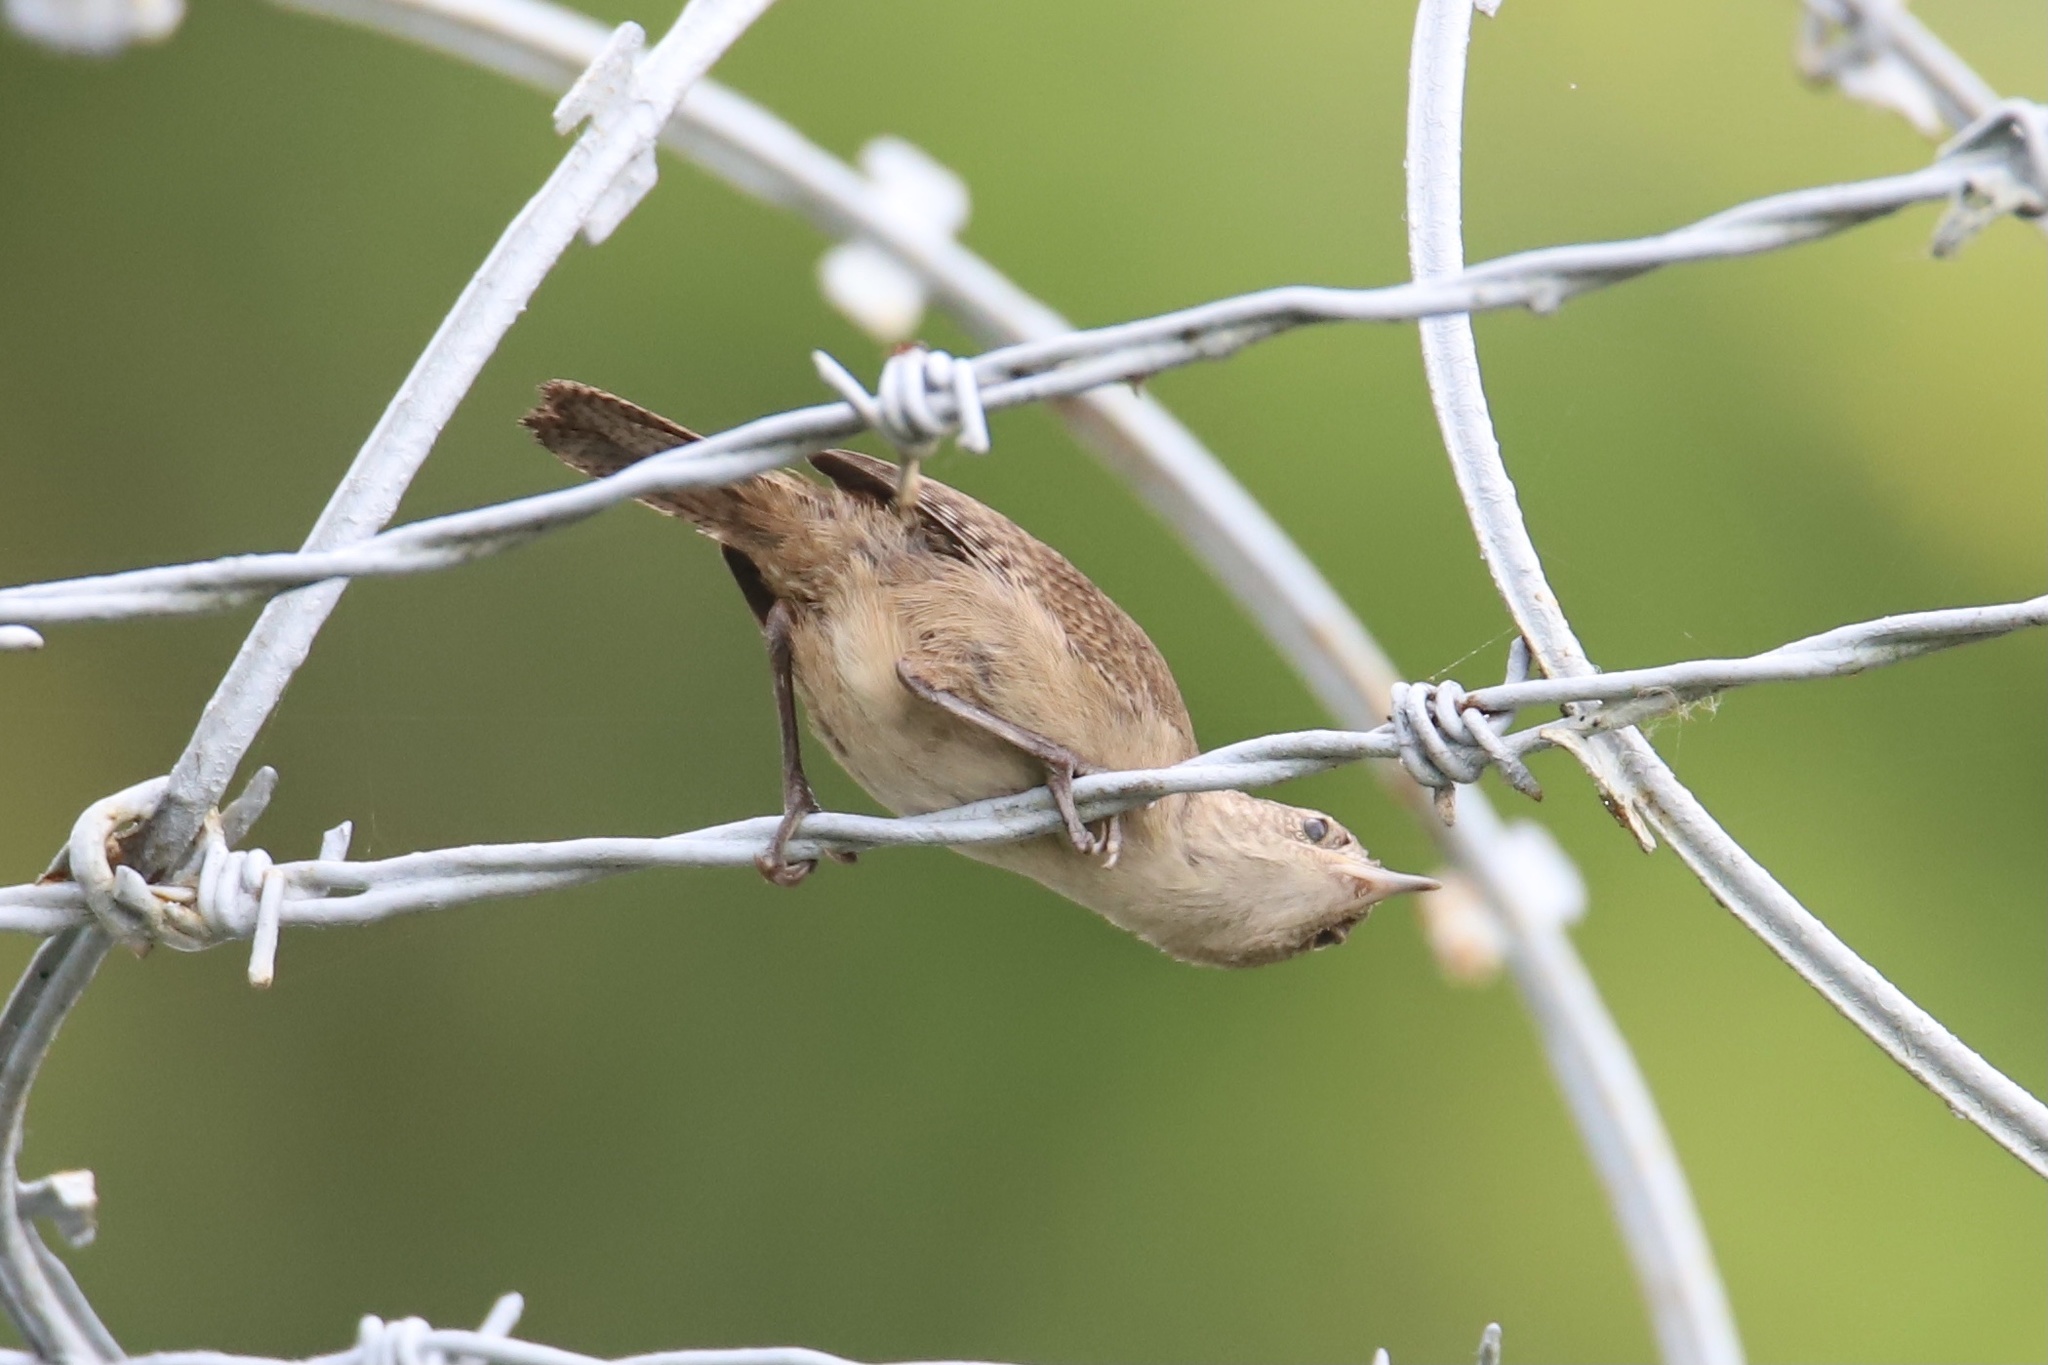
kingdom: Animalia
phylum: Chordata
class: Aves
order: Passeriformes
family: Troglodytidae
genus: Troglodytes
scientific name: Troglodytes aedon
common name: House wren
